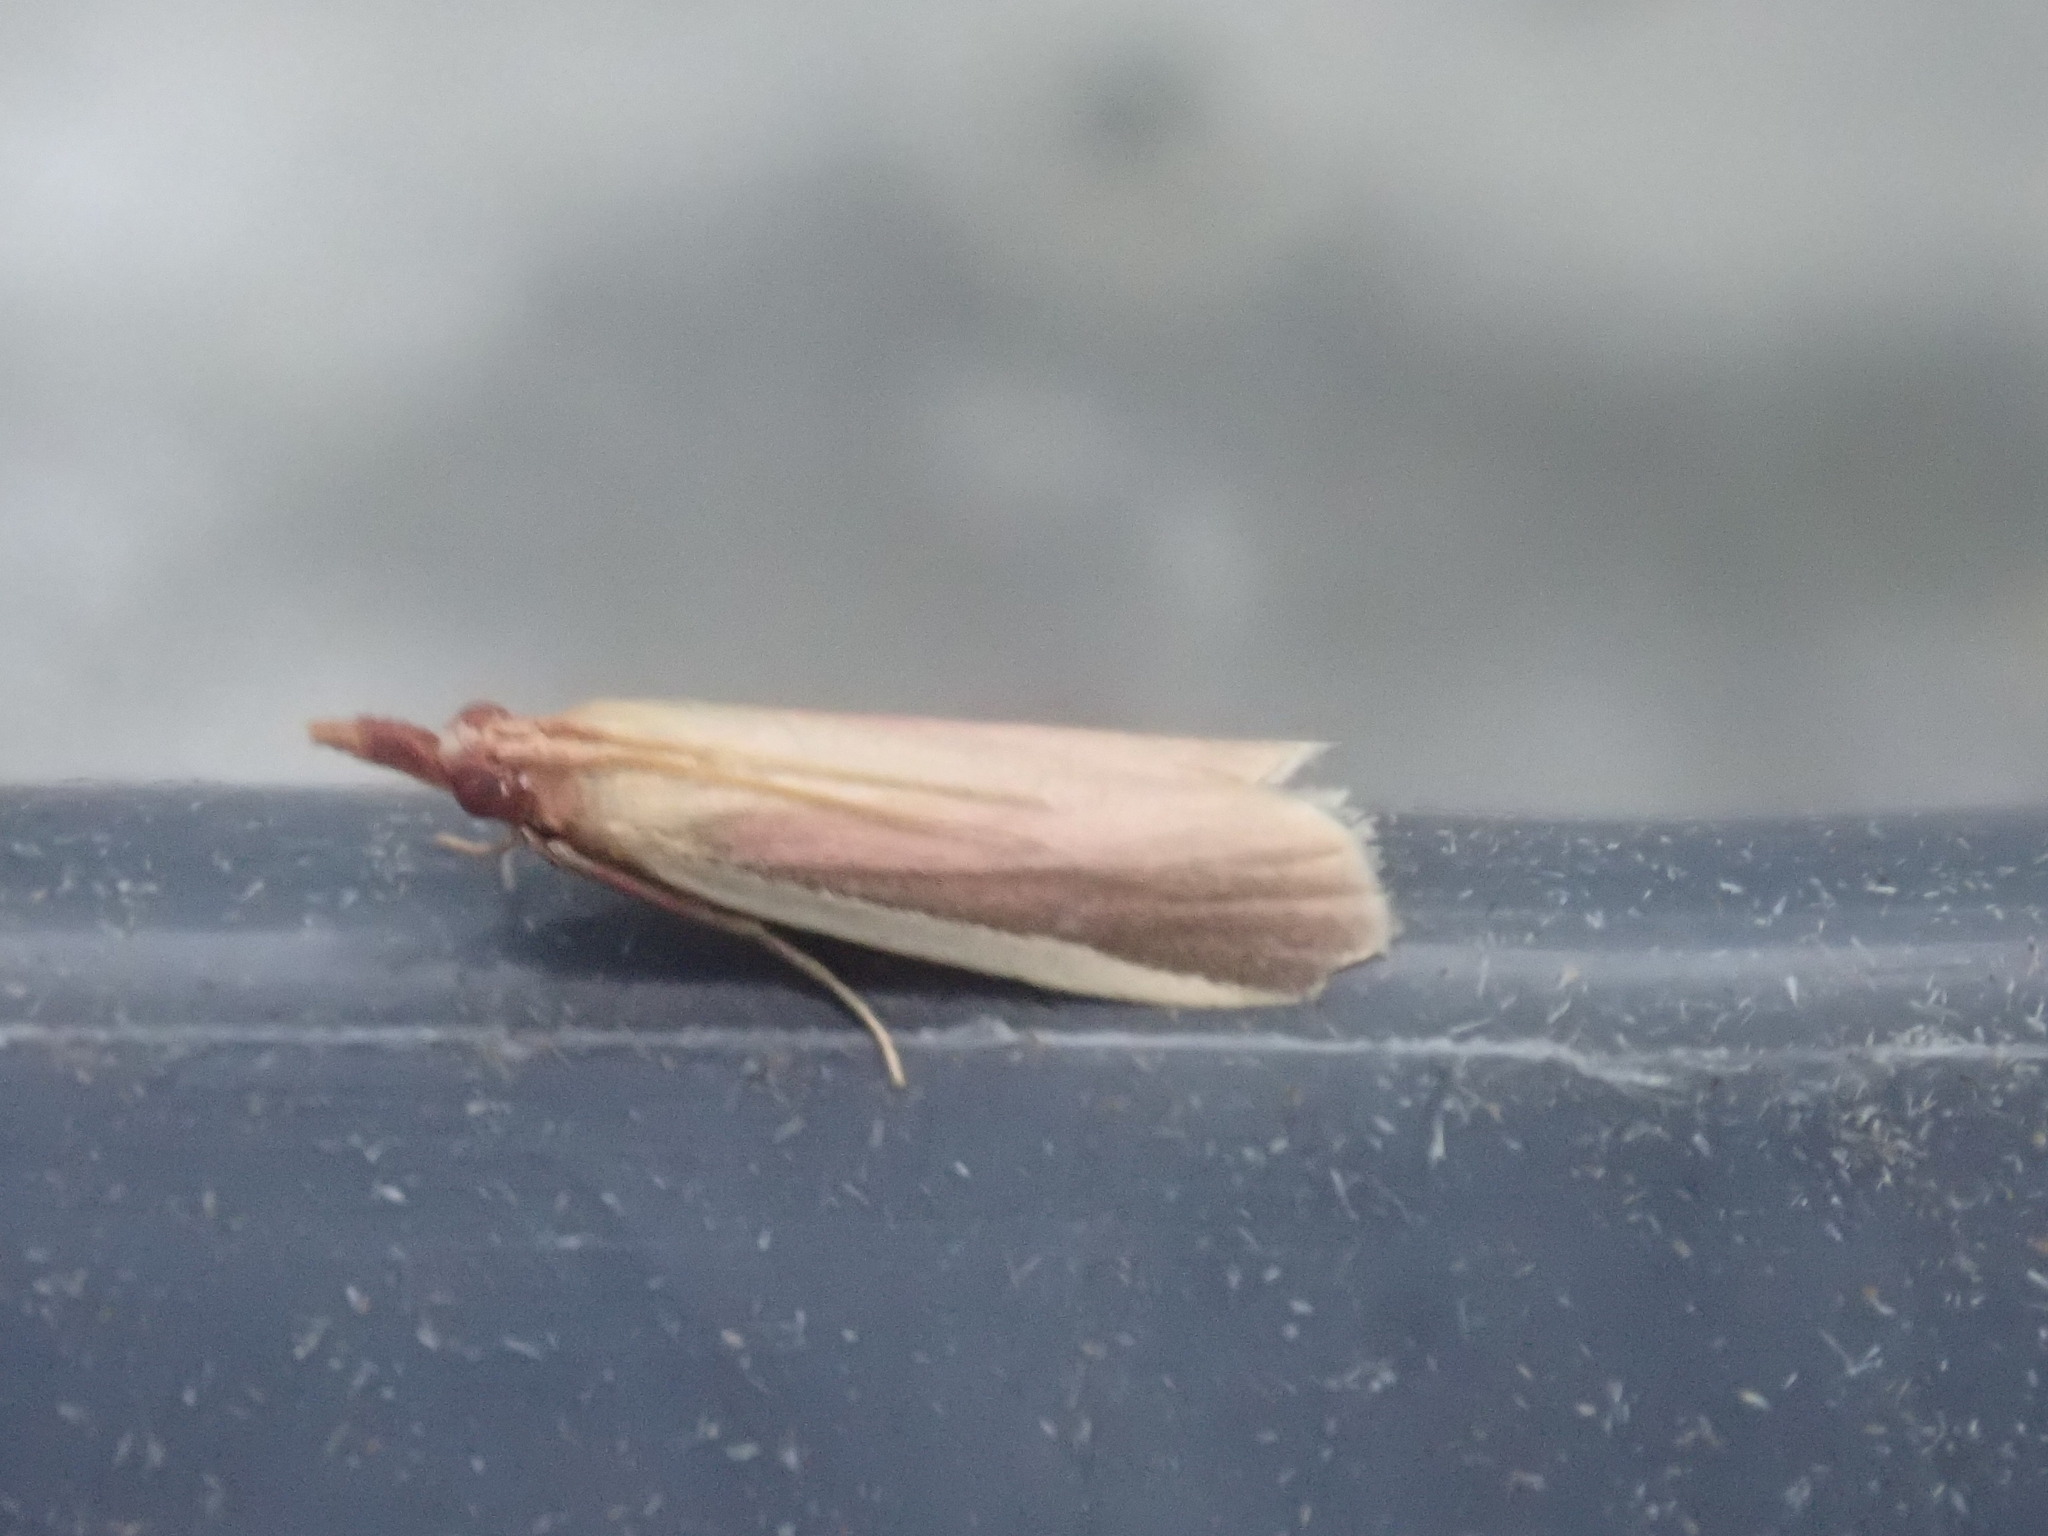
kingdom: Animalia
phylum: Arthropoda
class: Insecta
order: Lepidoptera
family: Pyralidae
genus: Peoria
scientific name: Peoria approximella
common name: Carmine snout
